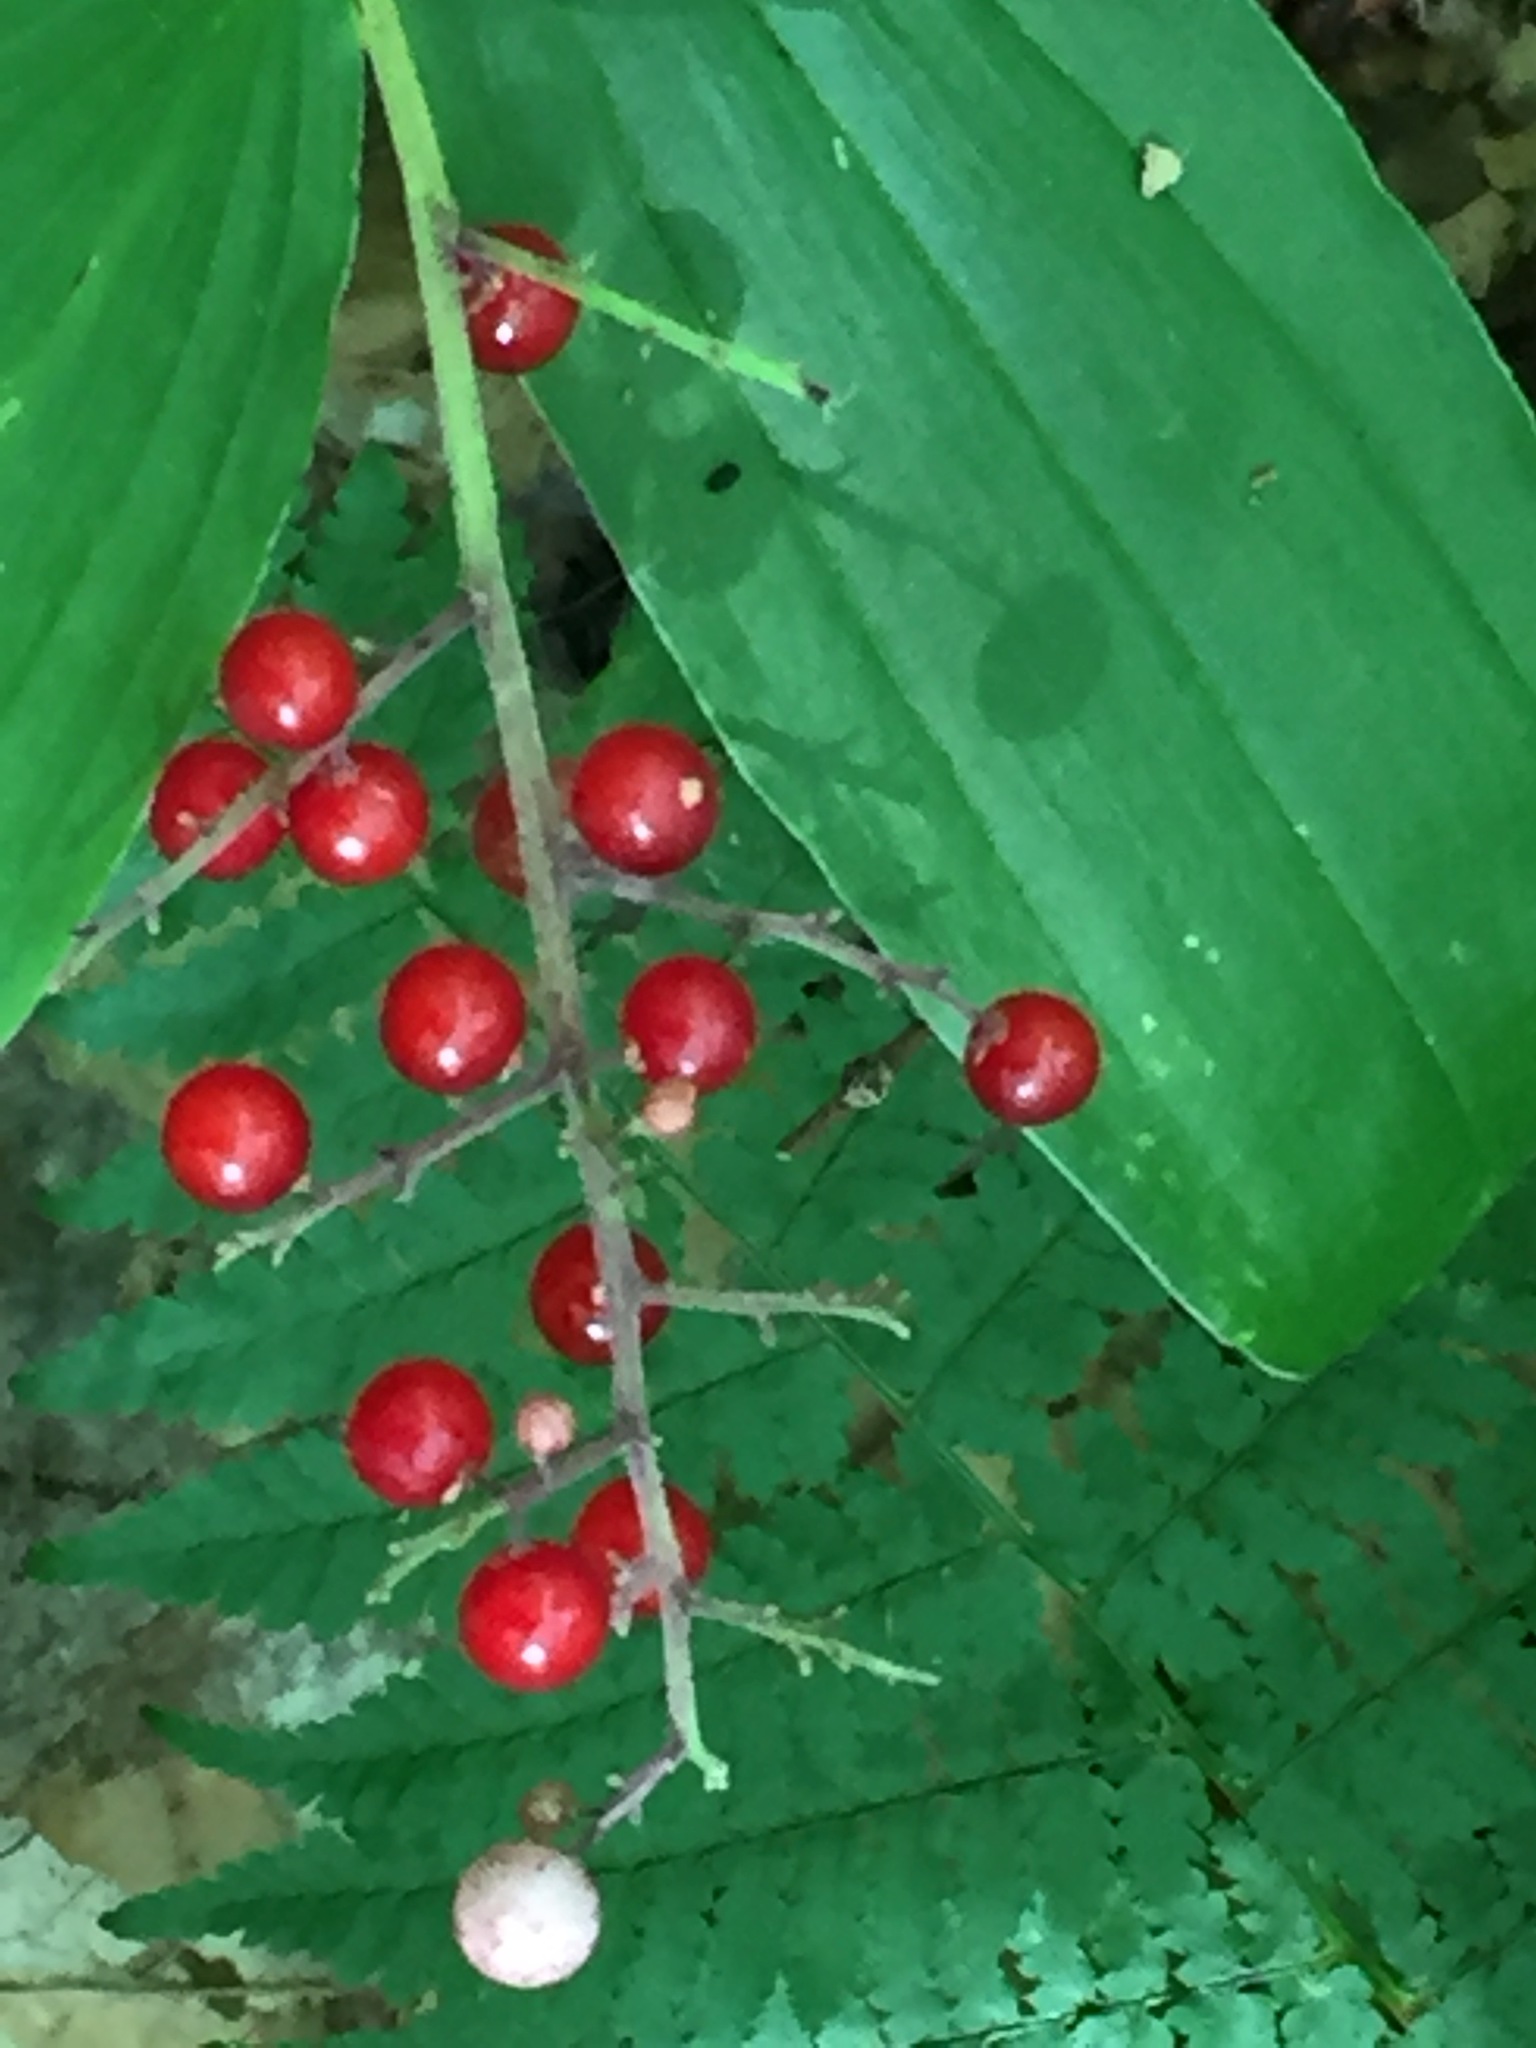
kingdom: Plantae
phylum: Tracheophyta
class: Liliopsida
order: Asparagales
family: Asparagaceae
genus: Maianthemum
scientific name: Maianthemum racemosum
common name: False spikenard
